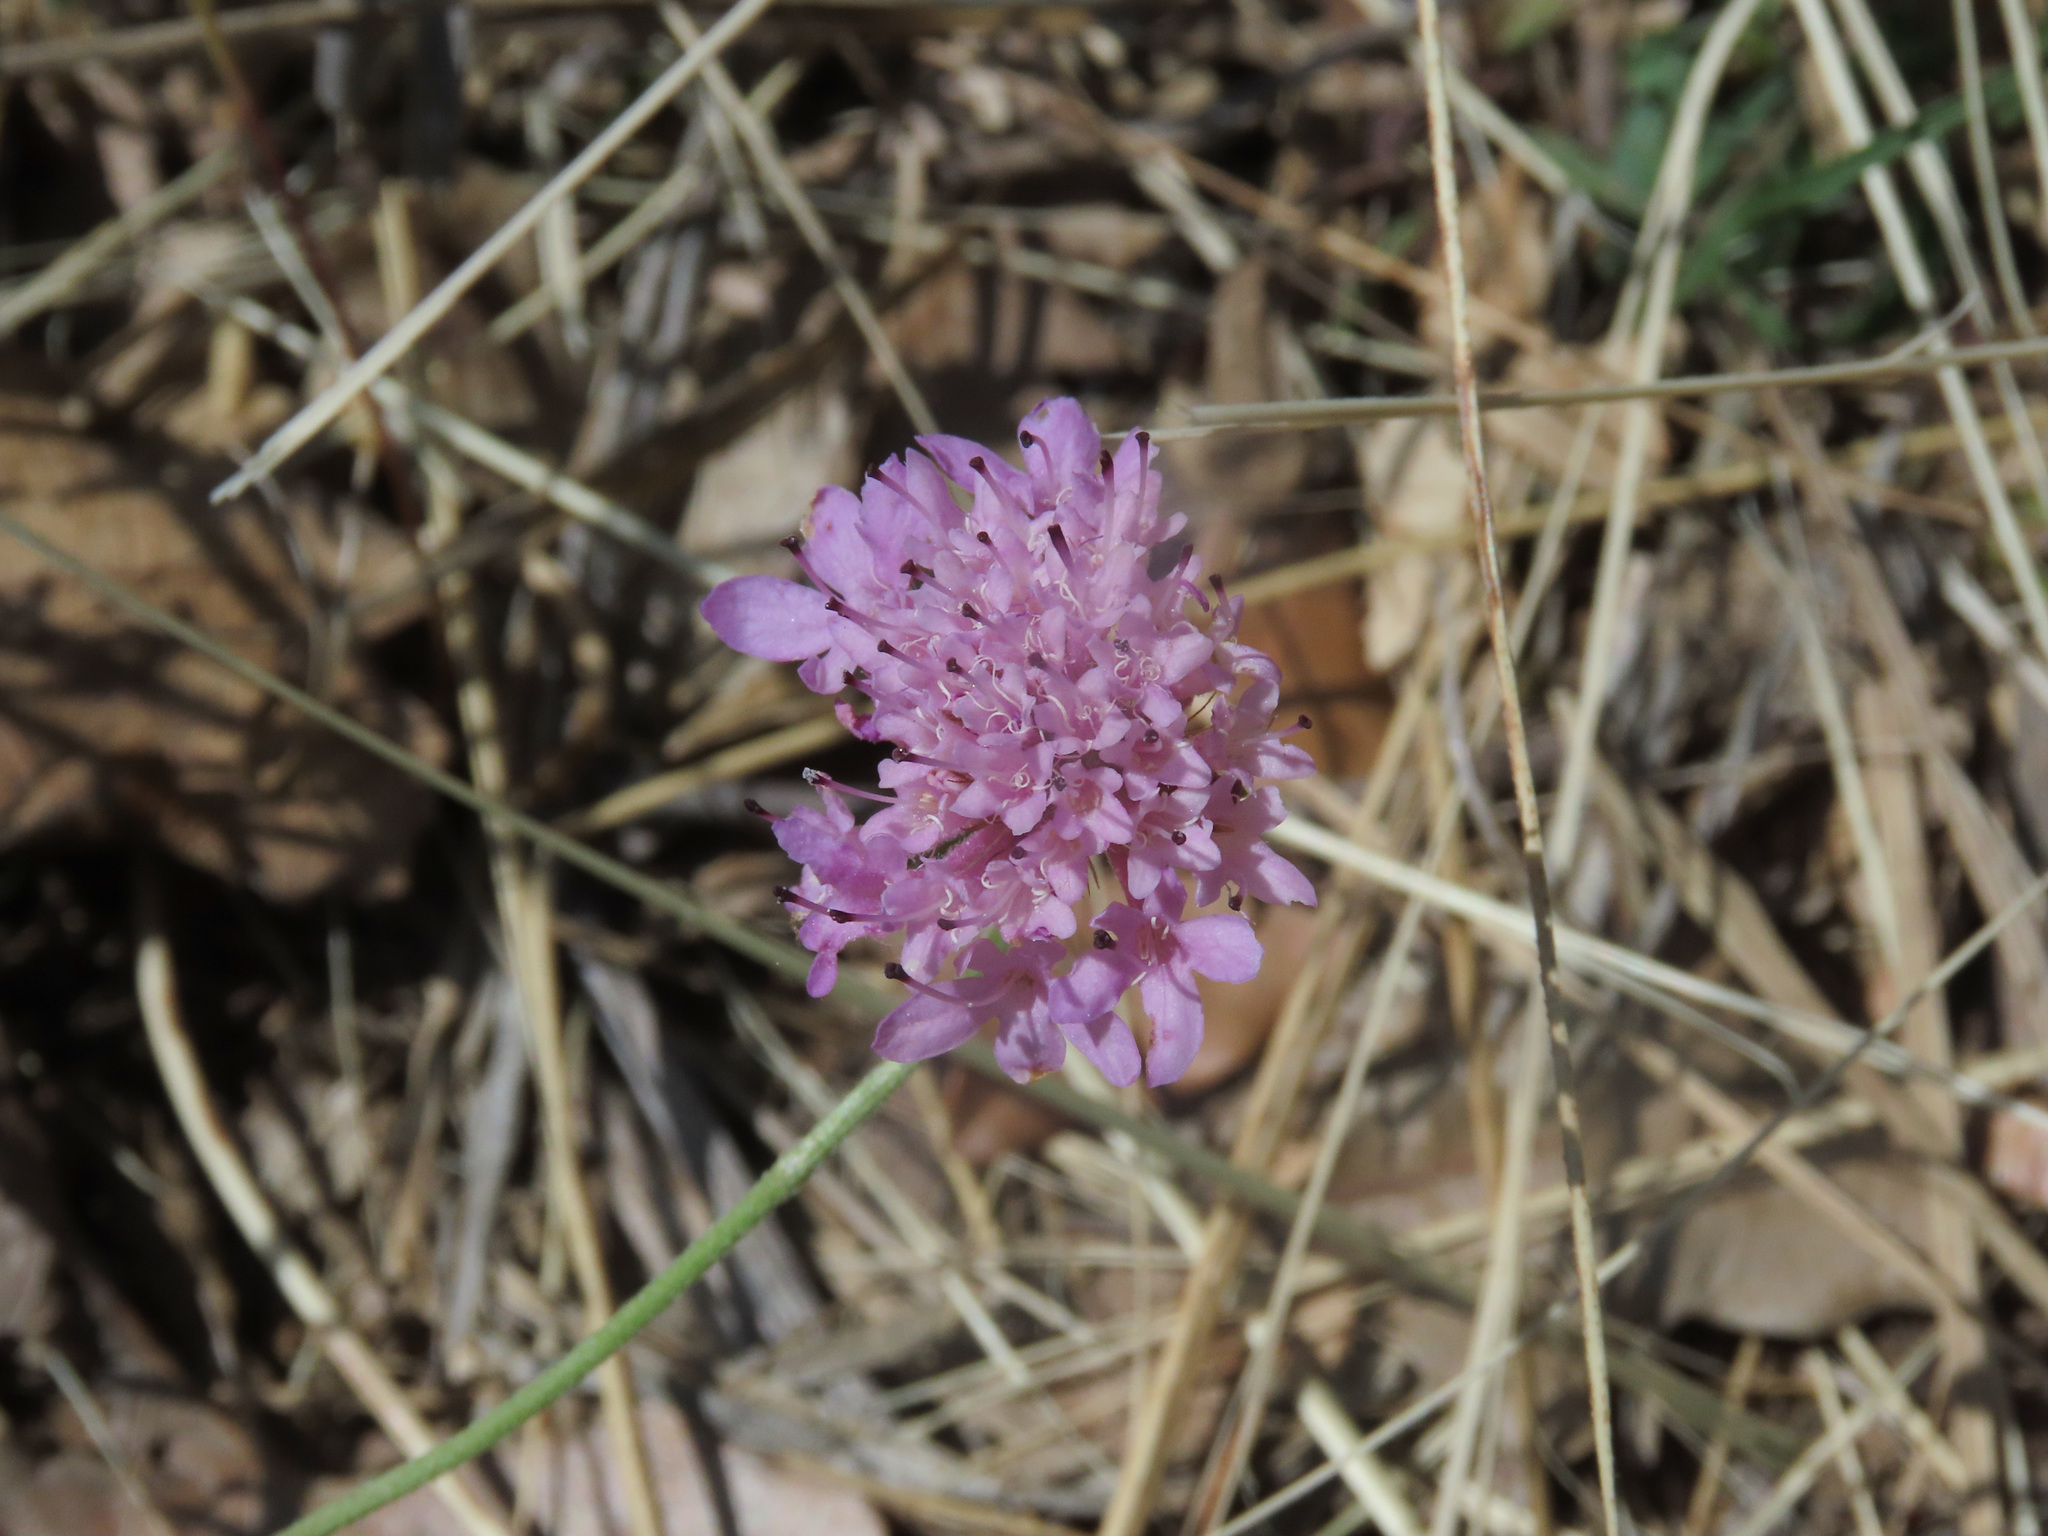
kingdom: Plantae
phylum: Tracheophyta
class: Magnoliopsida
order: Dipsacales
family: Caprifoliaceae
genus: Sixalix
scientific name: Sixalix atropurpurea
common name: Sweet scabious
